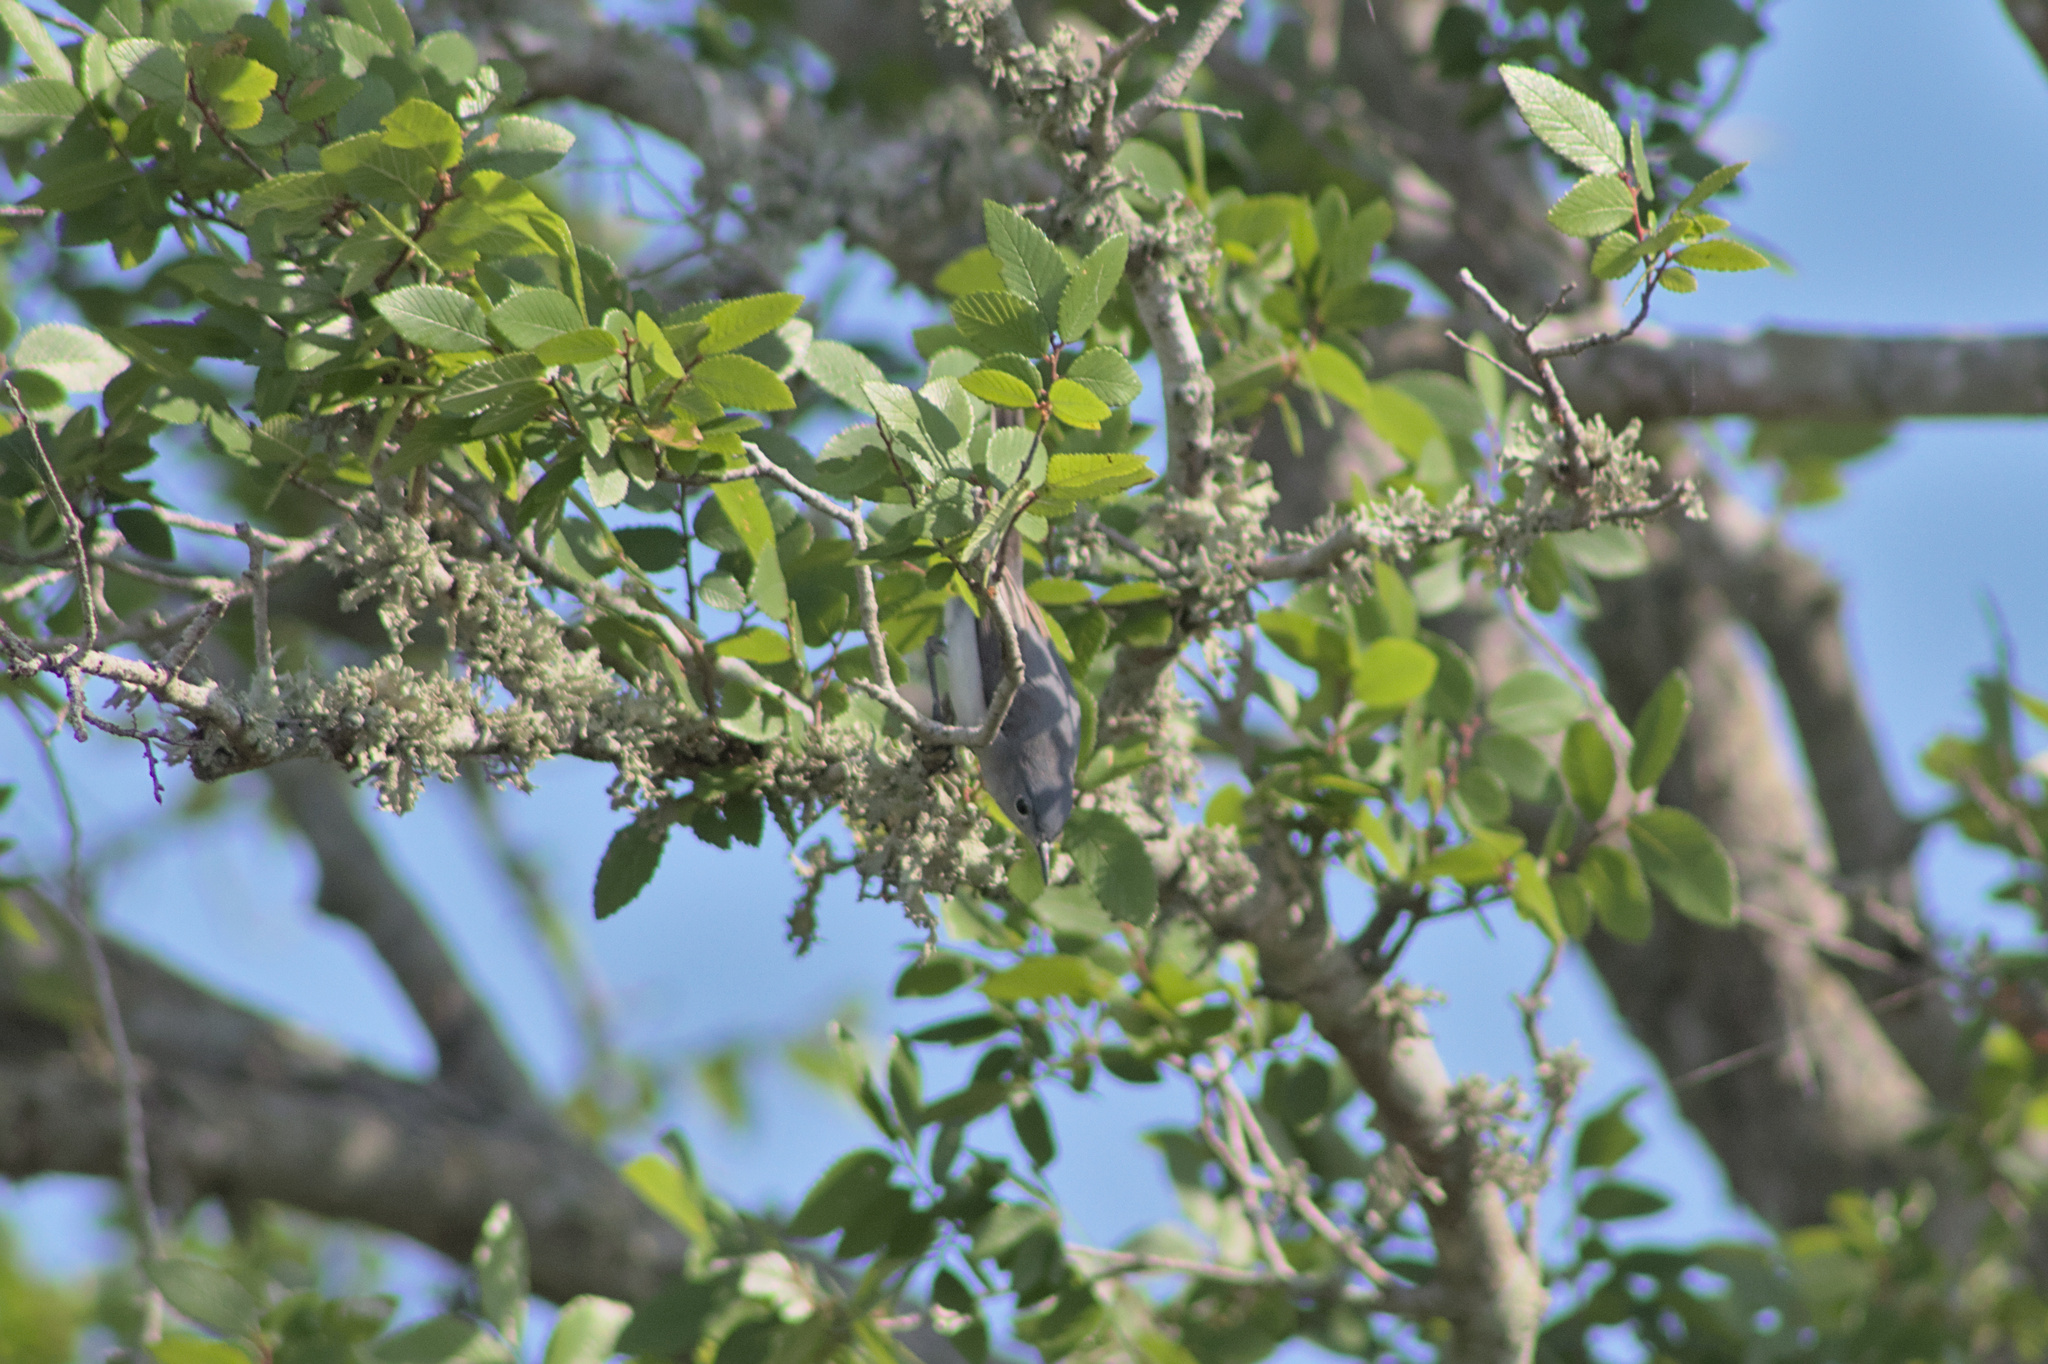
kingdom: Animalia
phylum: Chordata
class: Aves
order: Passeriformes
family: Polioptilidae
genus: Polioptila
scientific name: Polioptila caerulea
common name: Blue-gray gnatcatcher
